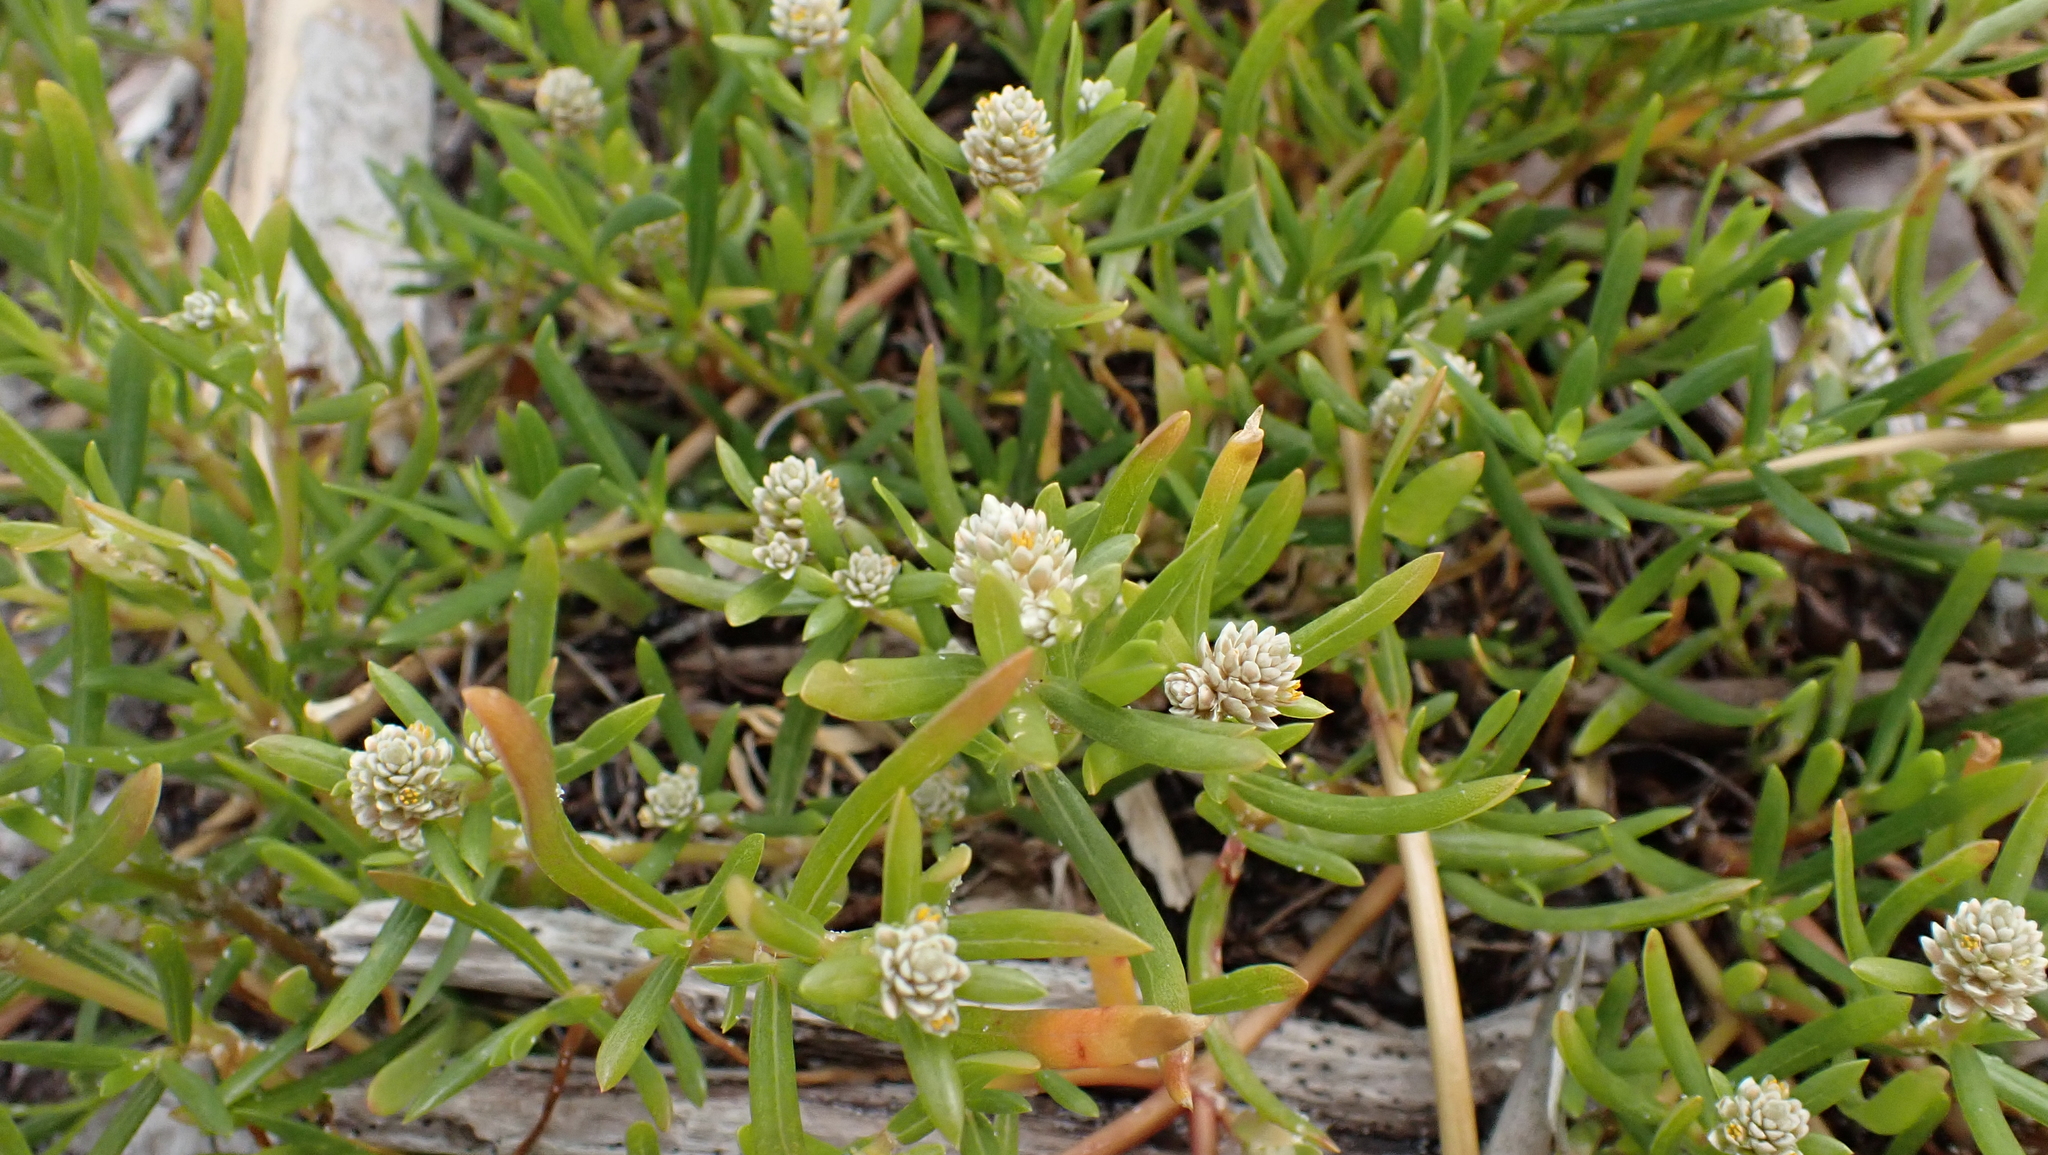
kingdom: Plantae
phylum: Tracheophyta
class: Magnoliopsida
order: Caryophyllales
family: Amaranthaceae
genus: Gomphrena
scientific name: Gomphrena vermicularis
